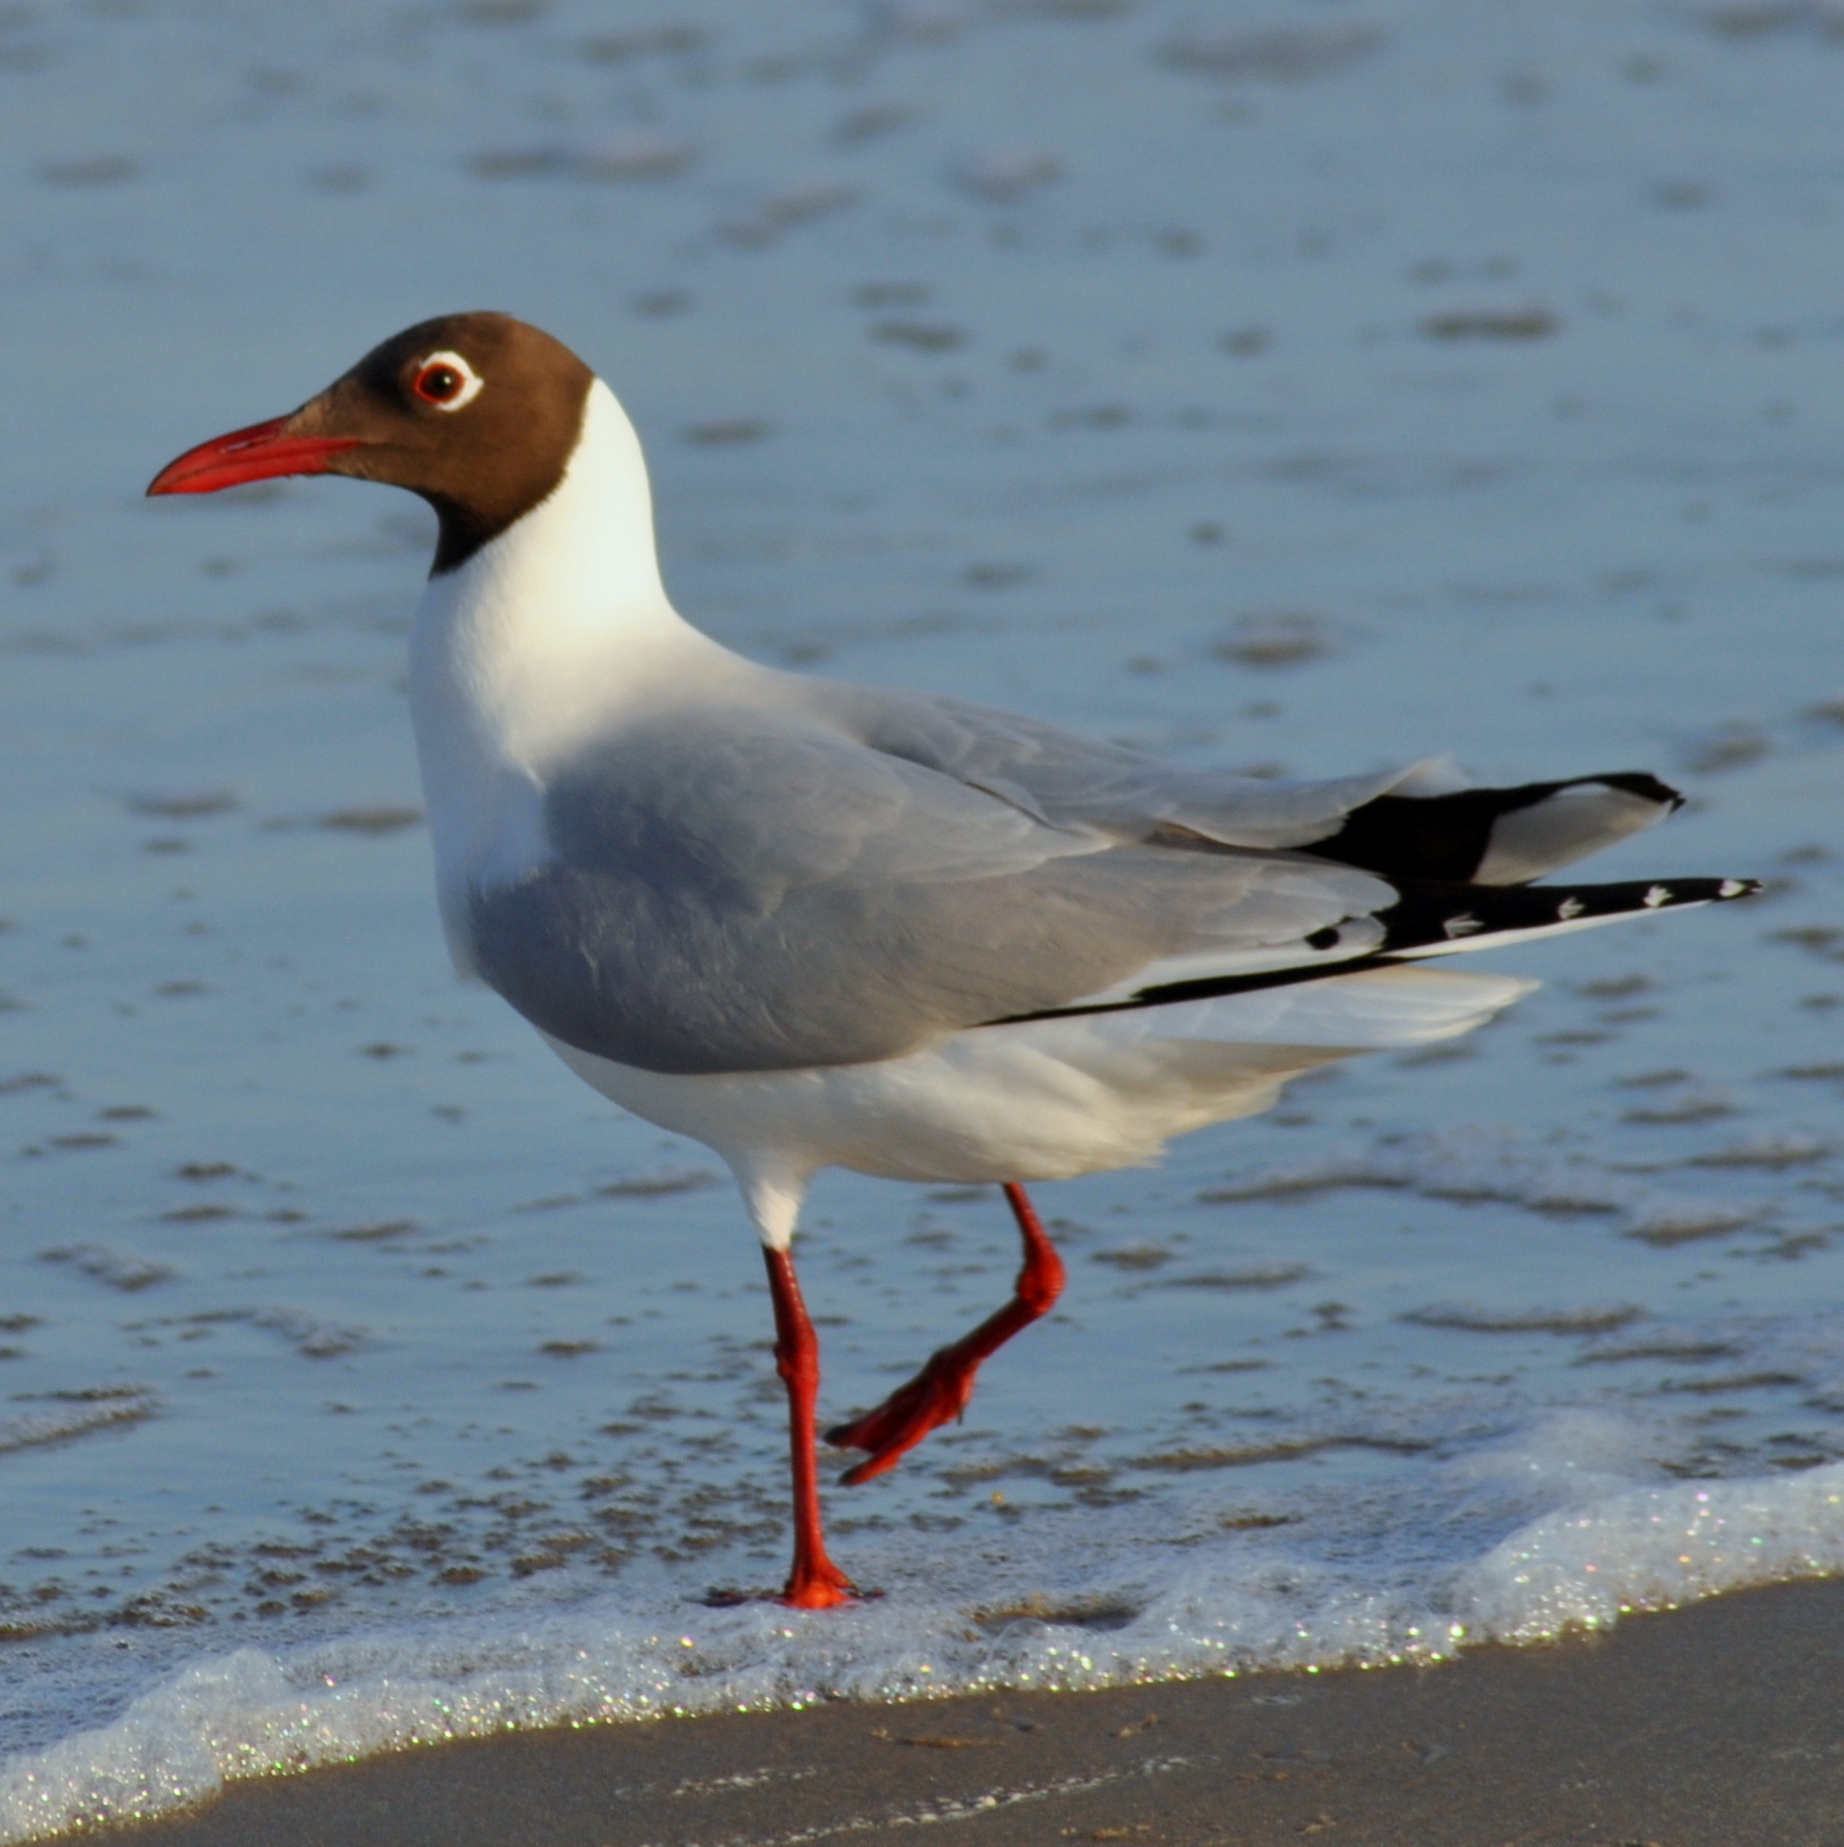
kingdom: Animalia
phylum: Chordata
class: Aves
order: Charadriiformes
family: Laridae
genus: Chroicocephalus
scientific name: Chroicocephalus maculipennis
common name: Brown-hooded gull
